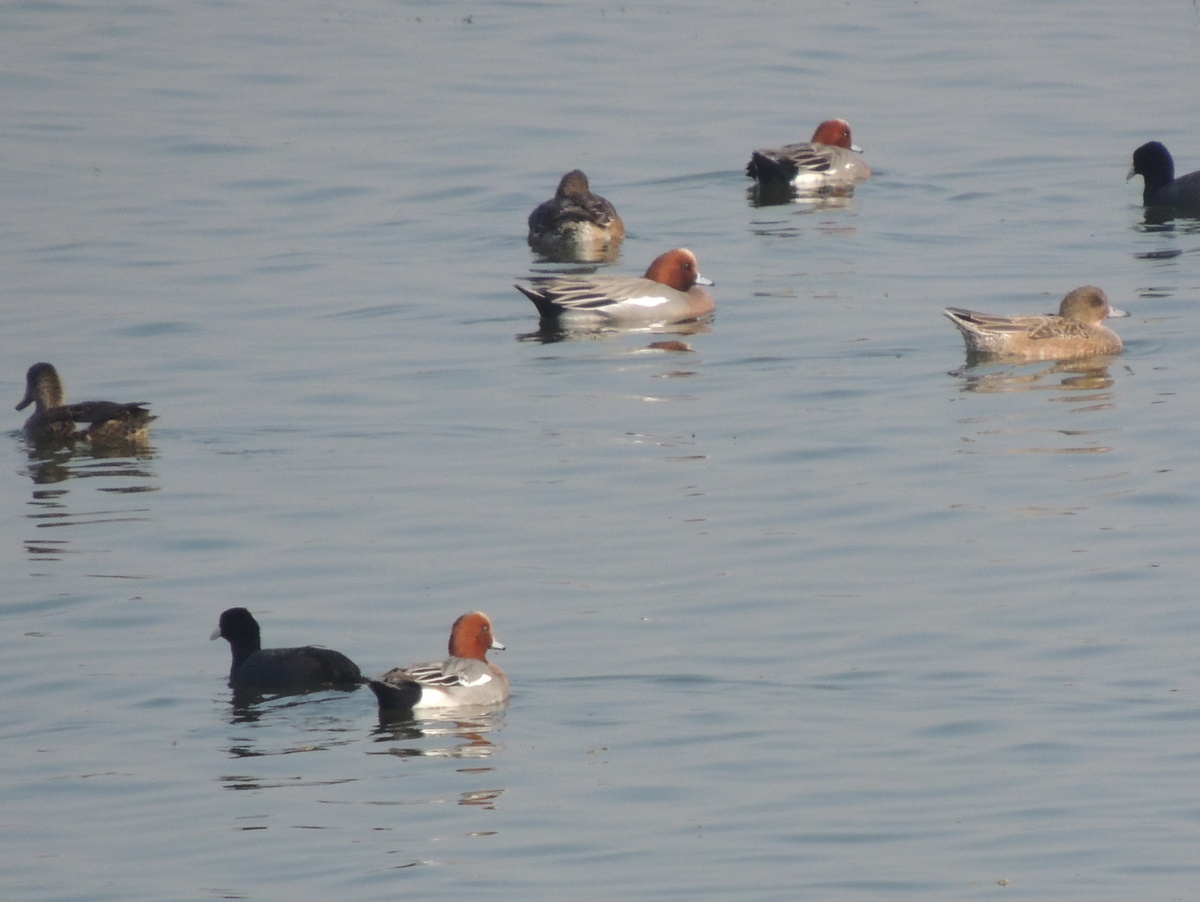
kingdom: Animalia
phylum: Chordata
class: Aves
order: Anseriformes
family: Anatidae
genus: Mareca
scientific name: Mareca penelope
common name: Eurasian wigeon
